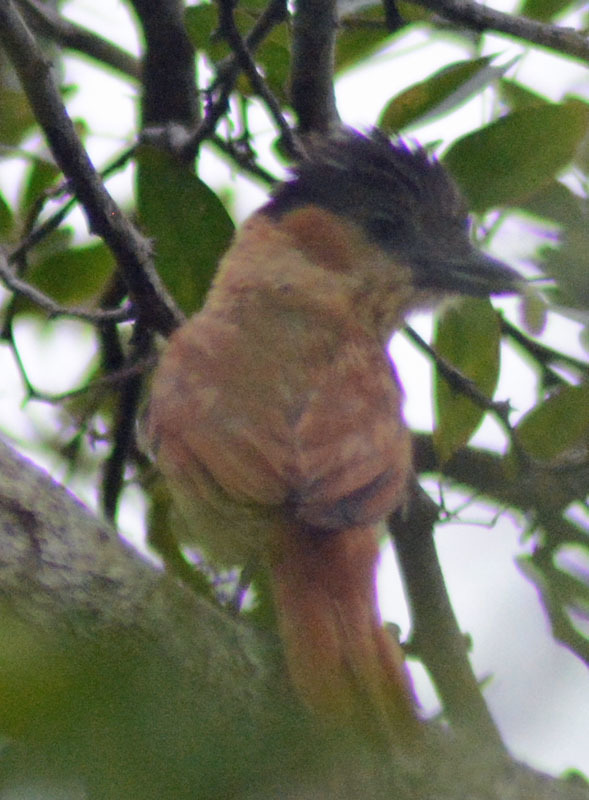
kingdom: Animalia
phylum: Chordata
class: Aves
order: Passeriformes
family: Cotingidae
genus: Pachyramphus
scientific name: Pachyramphus aglaiae
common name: Rose-throated becard
